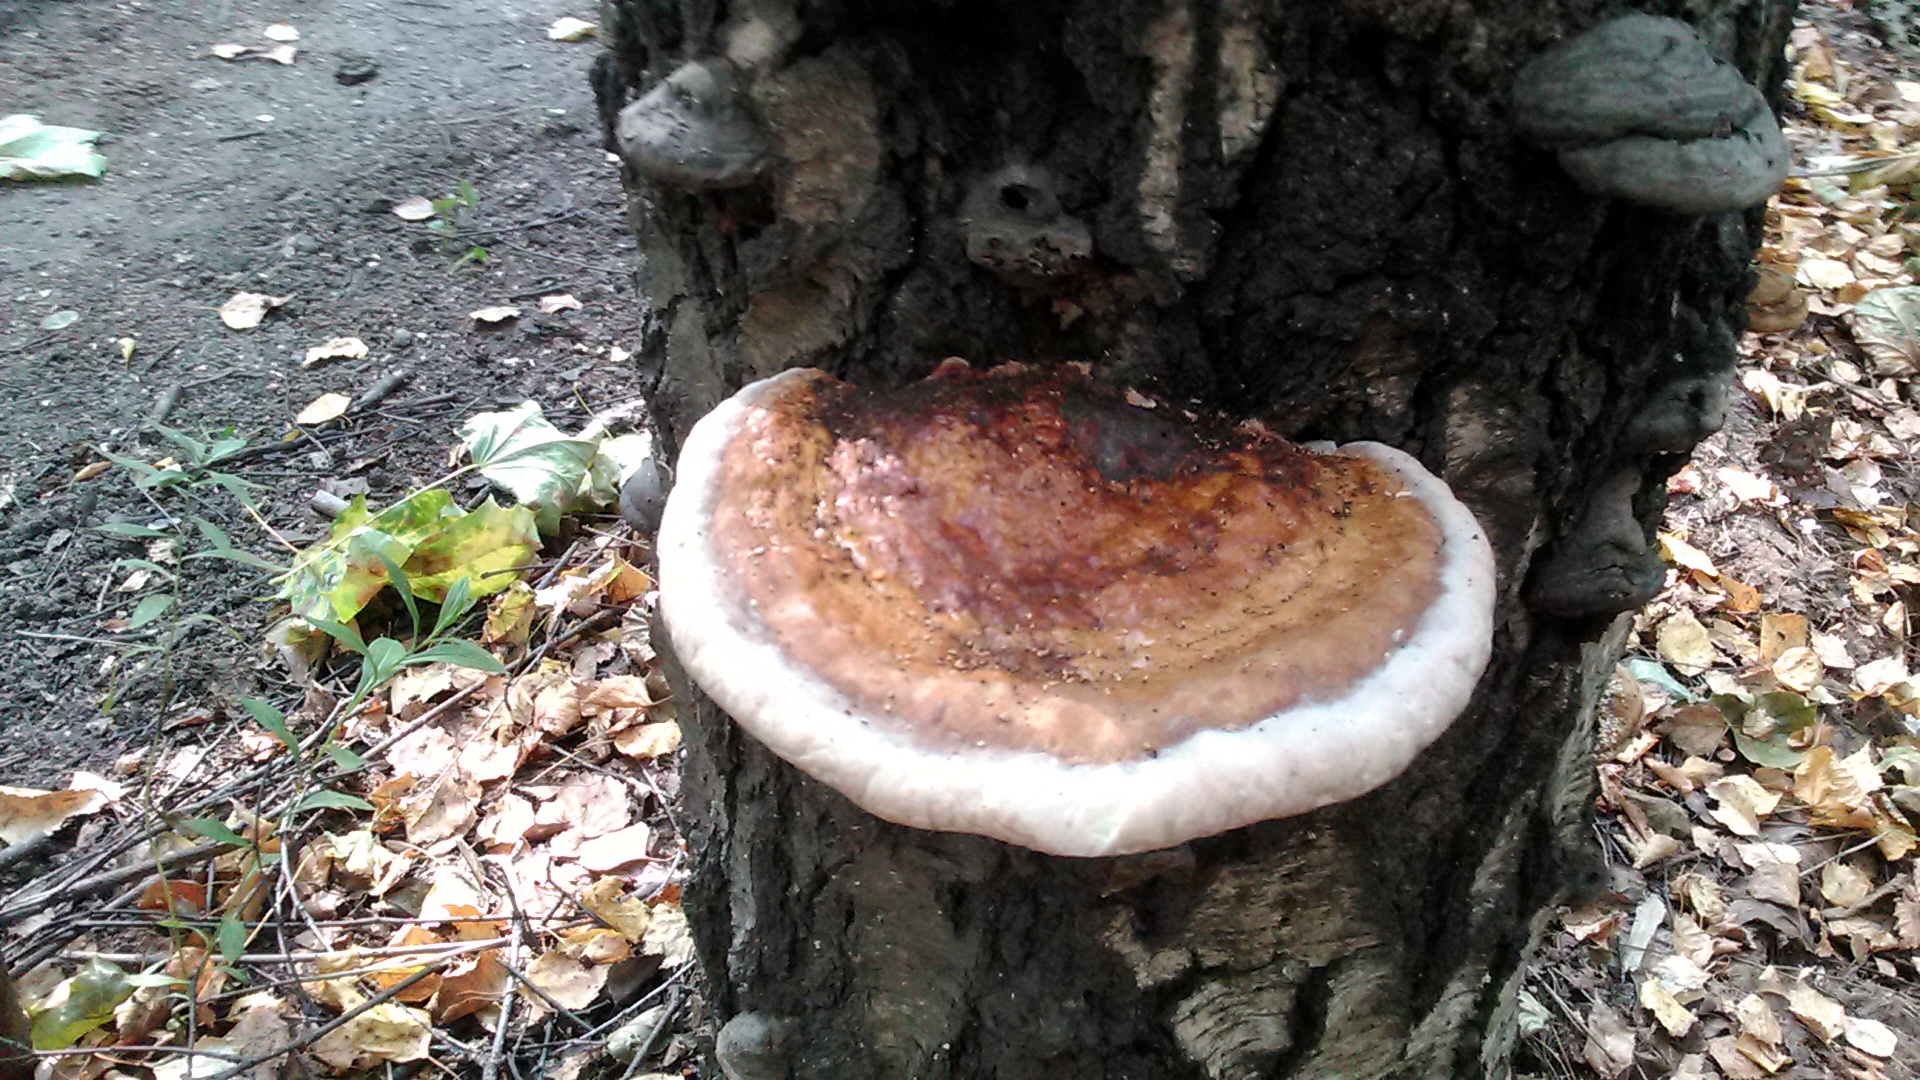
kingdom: Fungi
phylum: Basidiomycota
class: Agaricomycetes
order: Polyporales
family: Fomitopsidaceae
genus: Fomitopsis
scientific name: Fomitopsis pinicola
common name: Red-belted bracket
